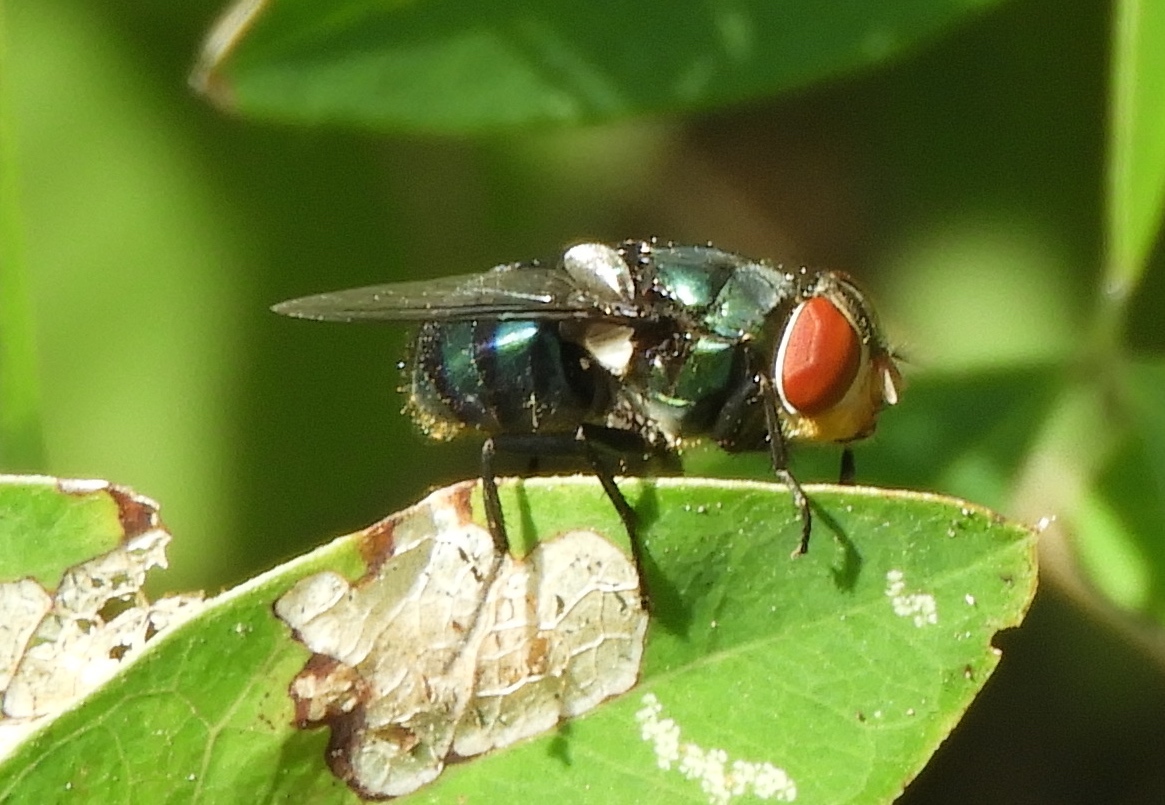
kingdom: Animalia
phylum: Arthropoda
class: Insecta
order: Diptera
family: Calliphoridae
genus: Chrysomya
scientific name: Chrysomya megacephala
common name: Blow fly
